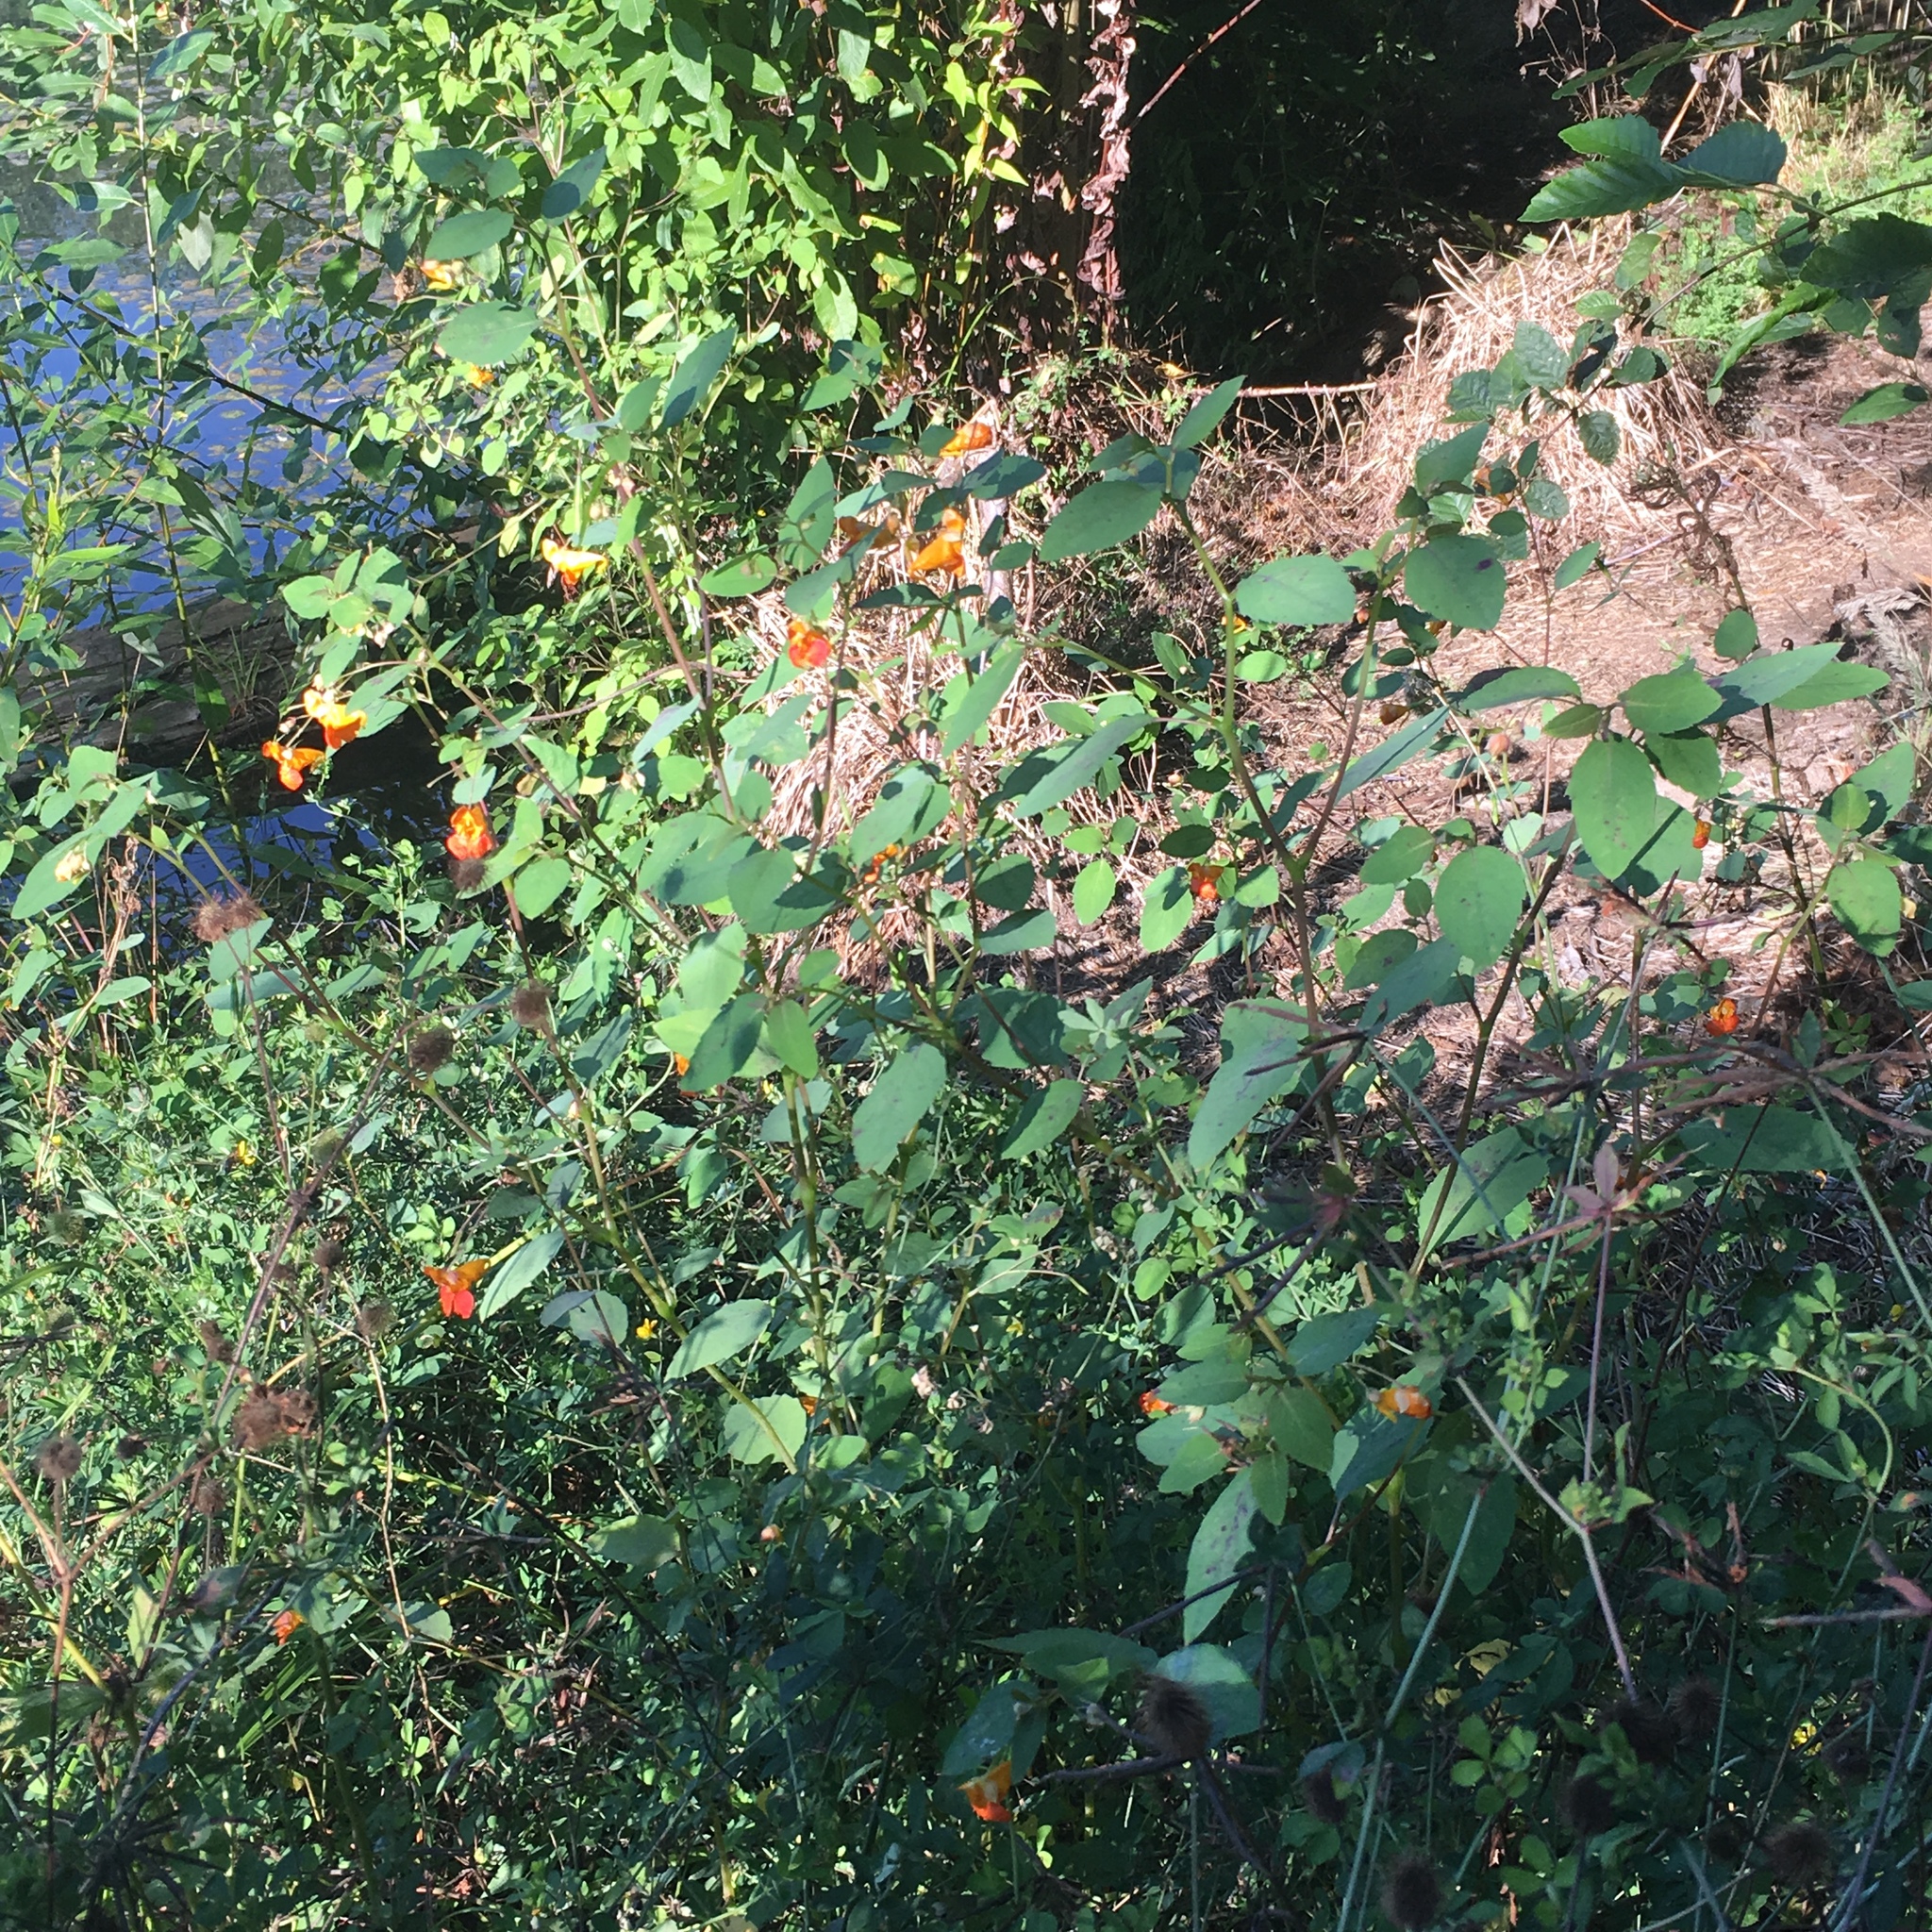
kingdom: Plantae
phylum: Tracheophyta
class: Magnoliopsida
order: Ericales
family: Balsaminaceae
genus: Impatiens
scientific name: Impatiens capensis
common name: Orange balsam
